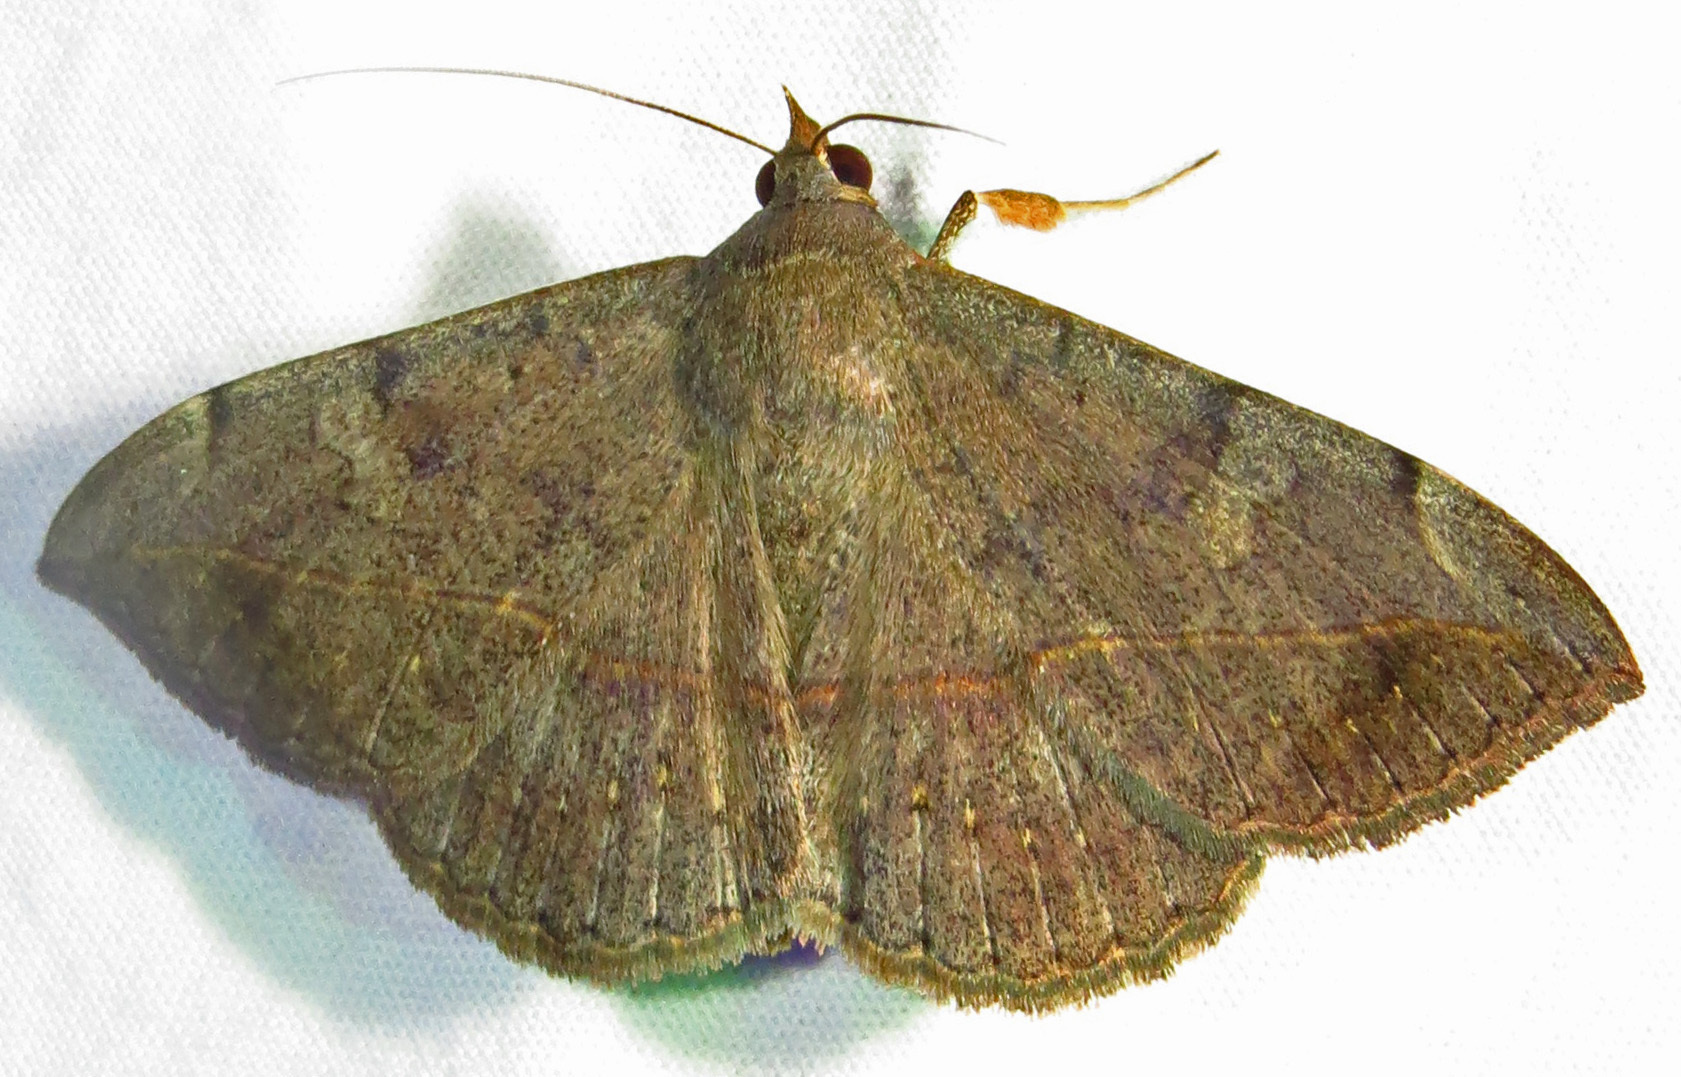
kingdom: Animalia
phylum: Arthropoda
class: Insecta
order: Lepidoptera
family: Erebidae
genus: Anticarsia
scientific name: Anticarsia gemmatalis
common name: Cutworm moth
